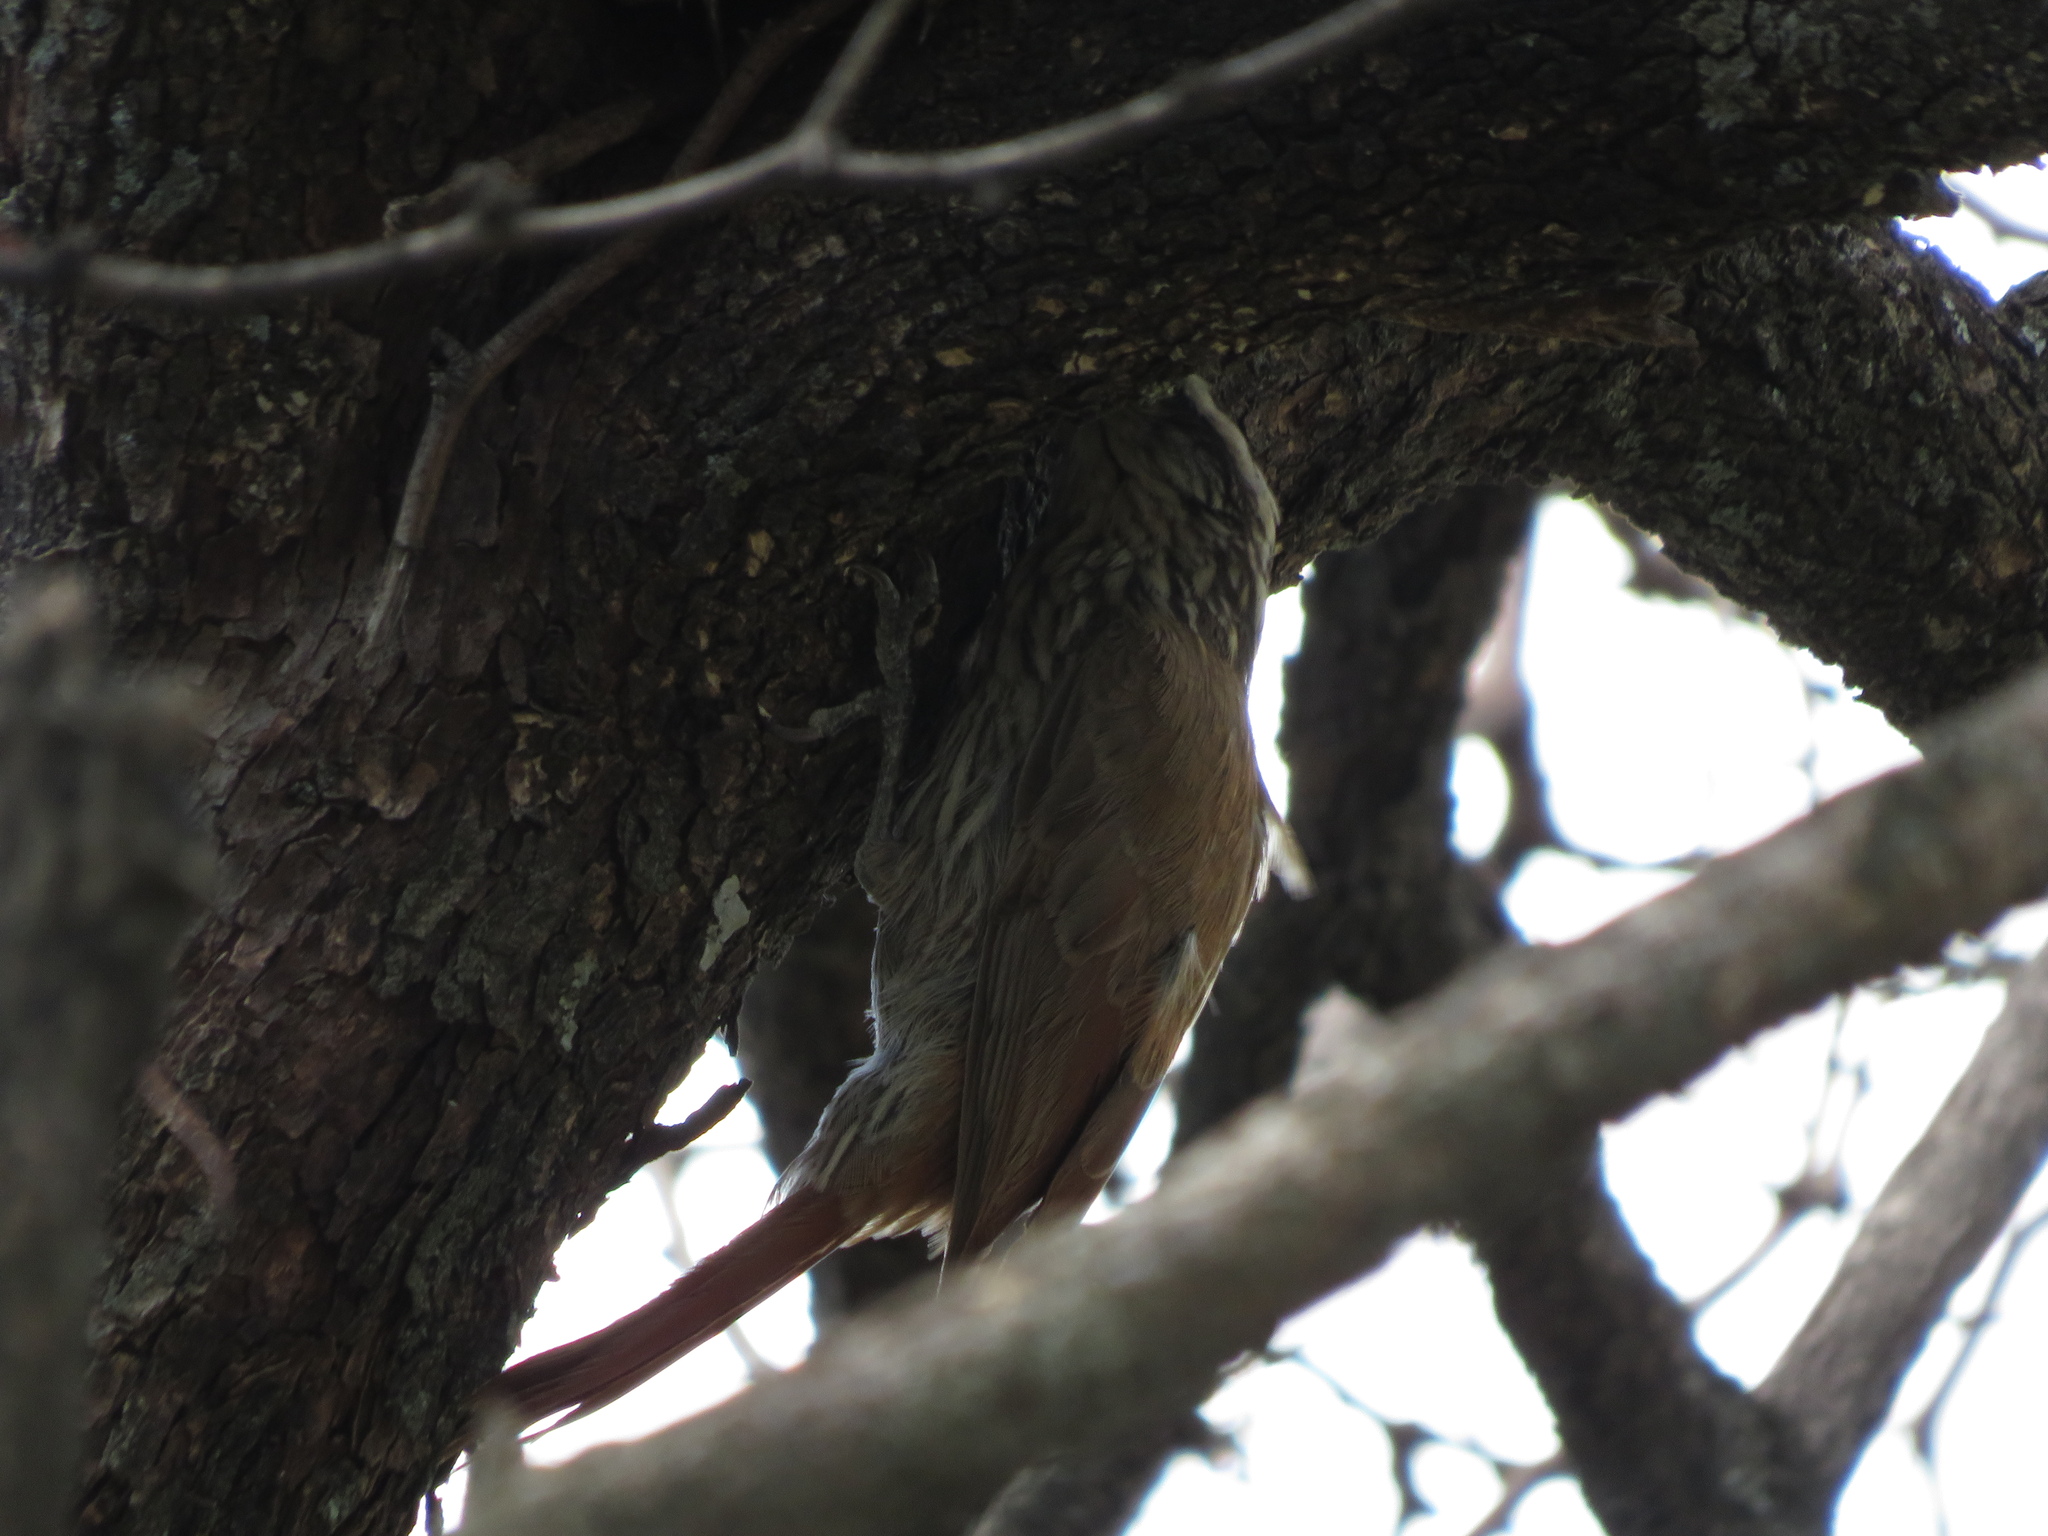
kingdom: Animalia
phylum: Chordata
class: Aves
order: Passeriformes
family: Furnariidae
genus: Lepidocolaptes
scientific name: Lepidocolaptes angustirostris
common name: Narrow-billed woodcreeper
